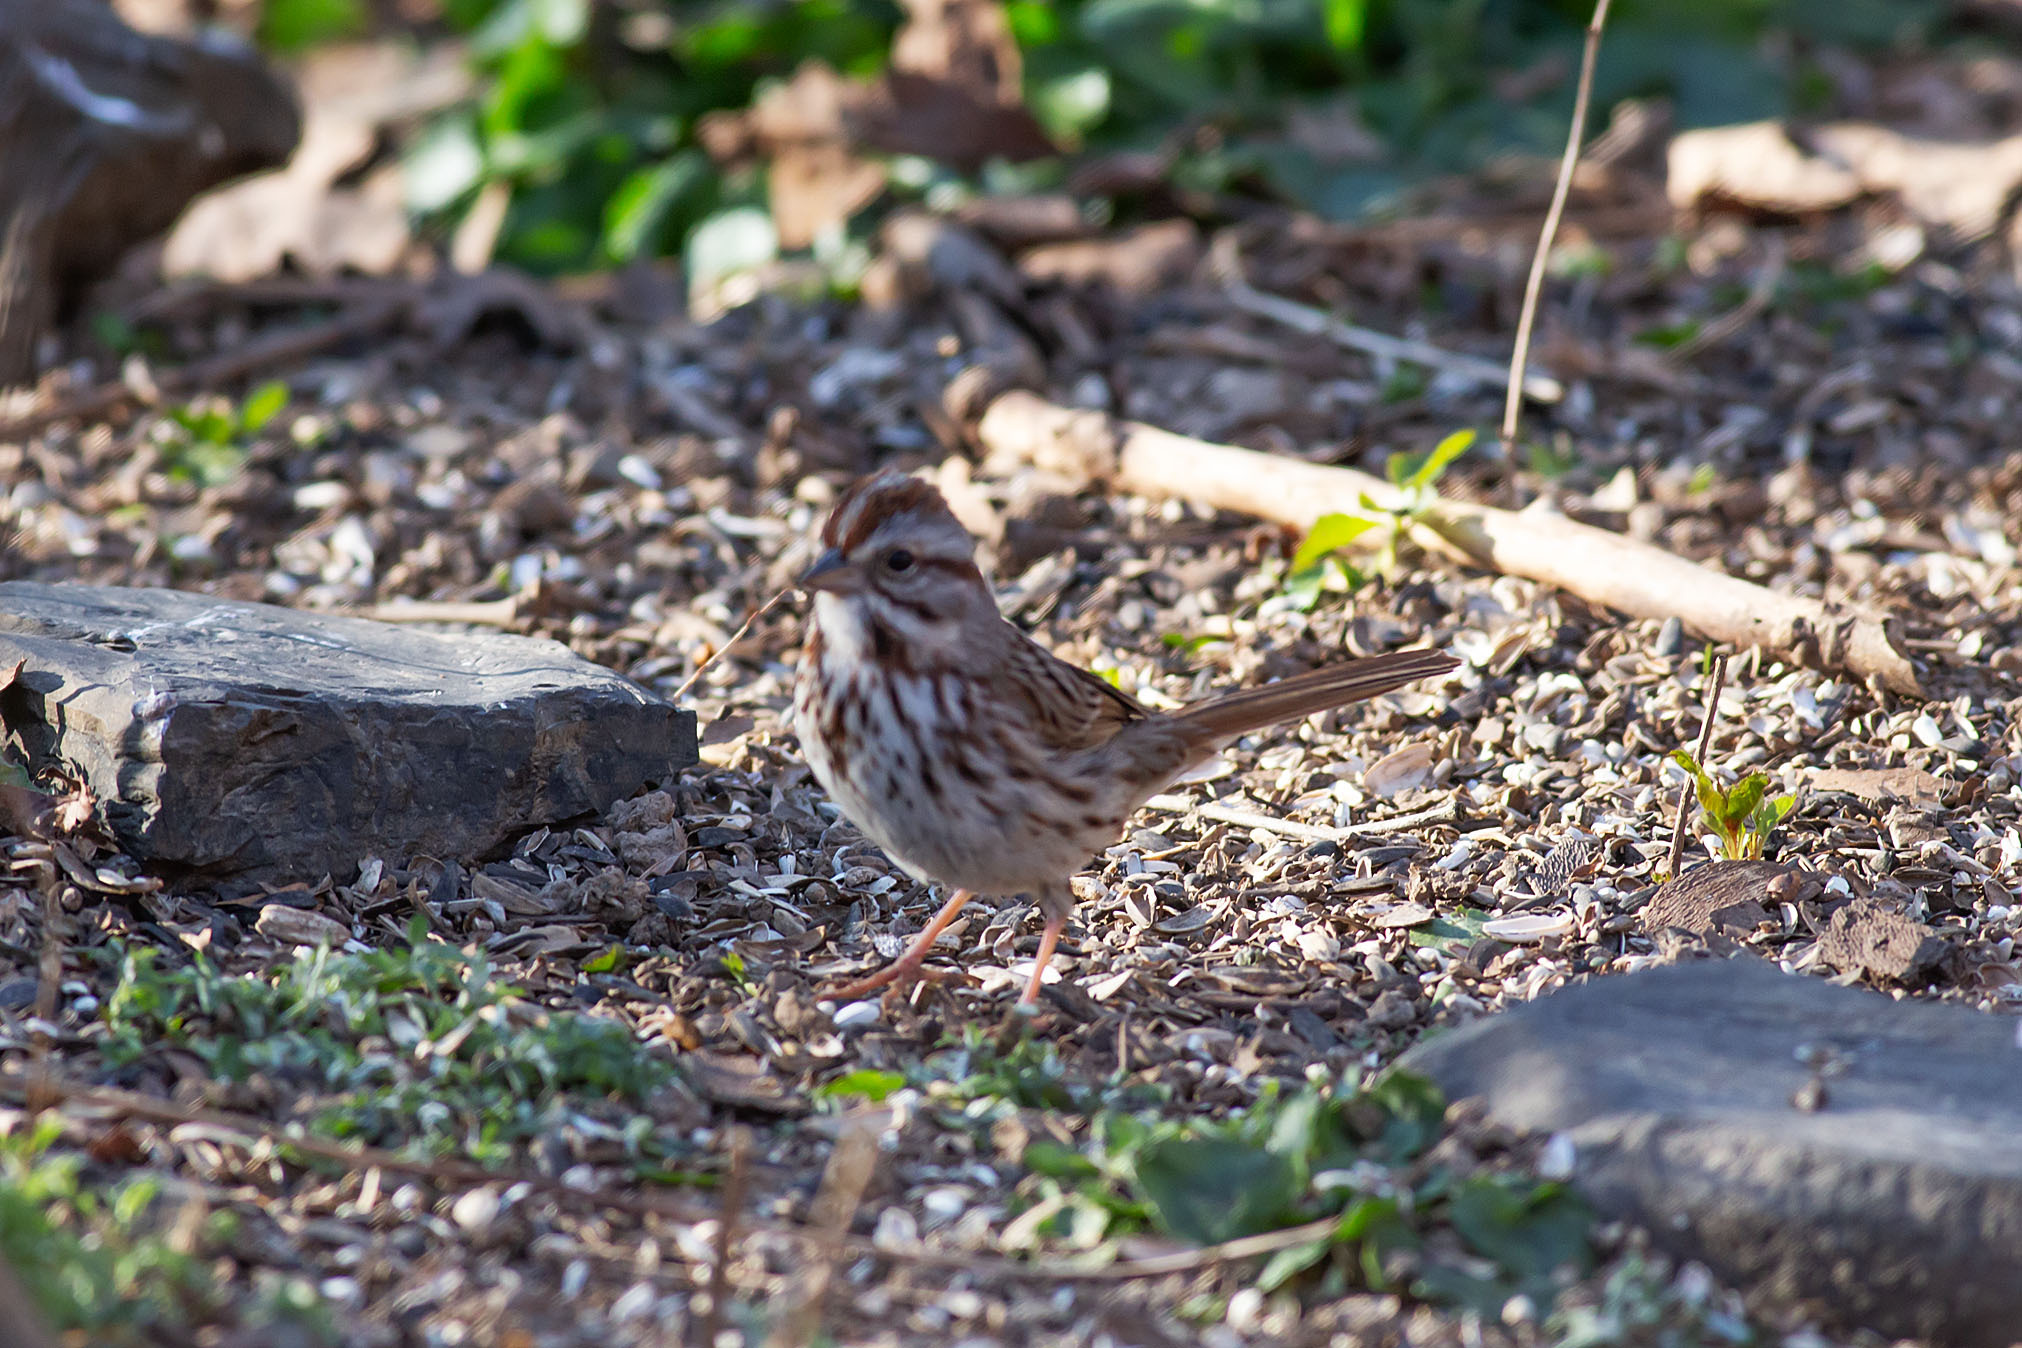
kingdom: Animalia
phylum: Chordata
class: Aves
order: Passeriformes
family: Passerellidae
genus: Melospiza
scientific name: Melospiza melodia
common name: Song sparrow
